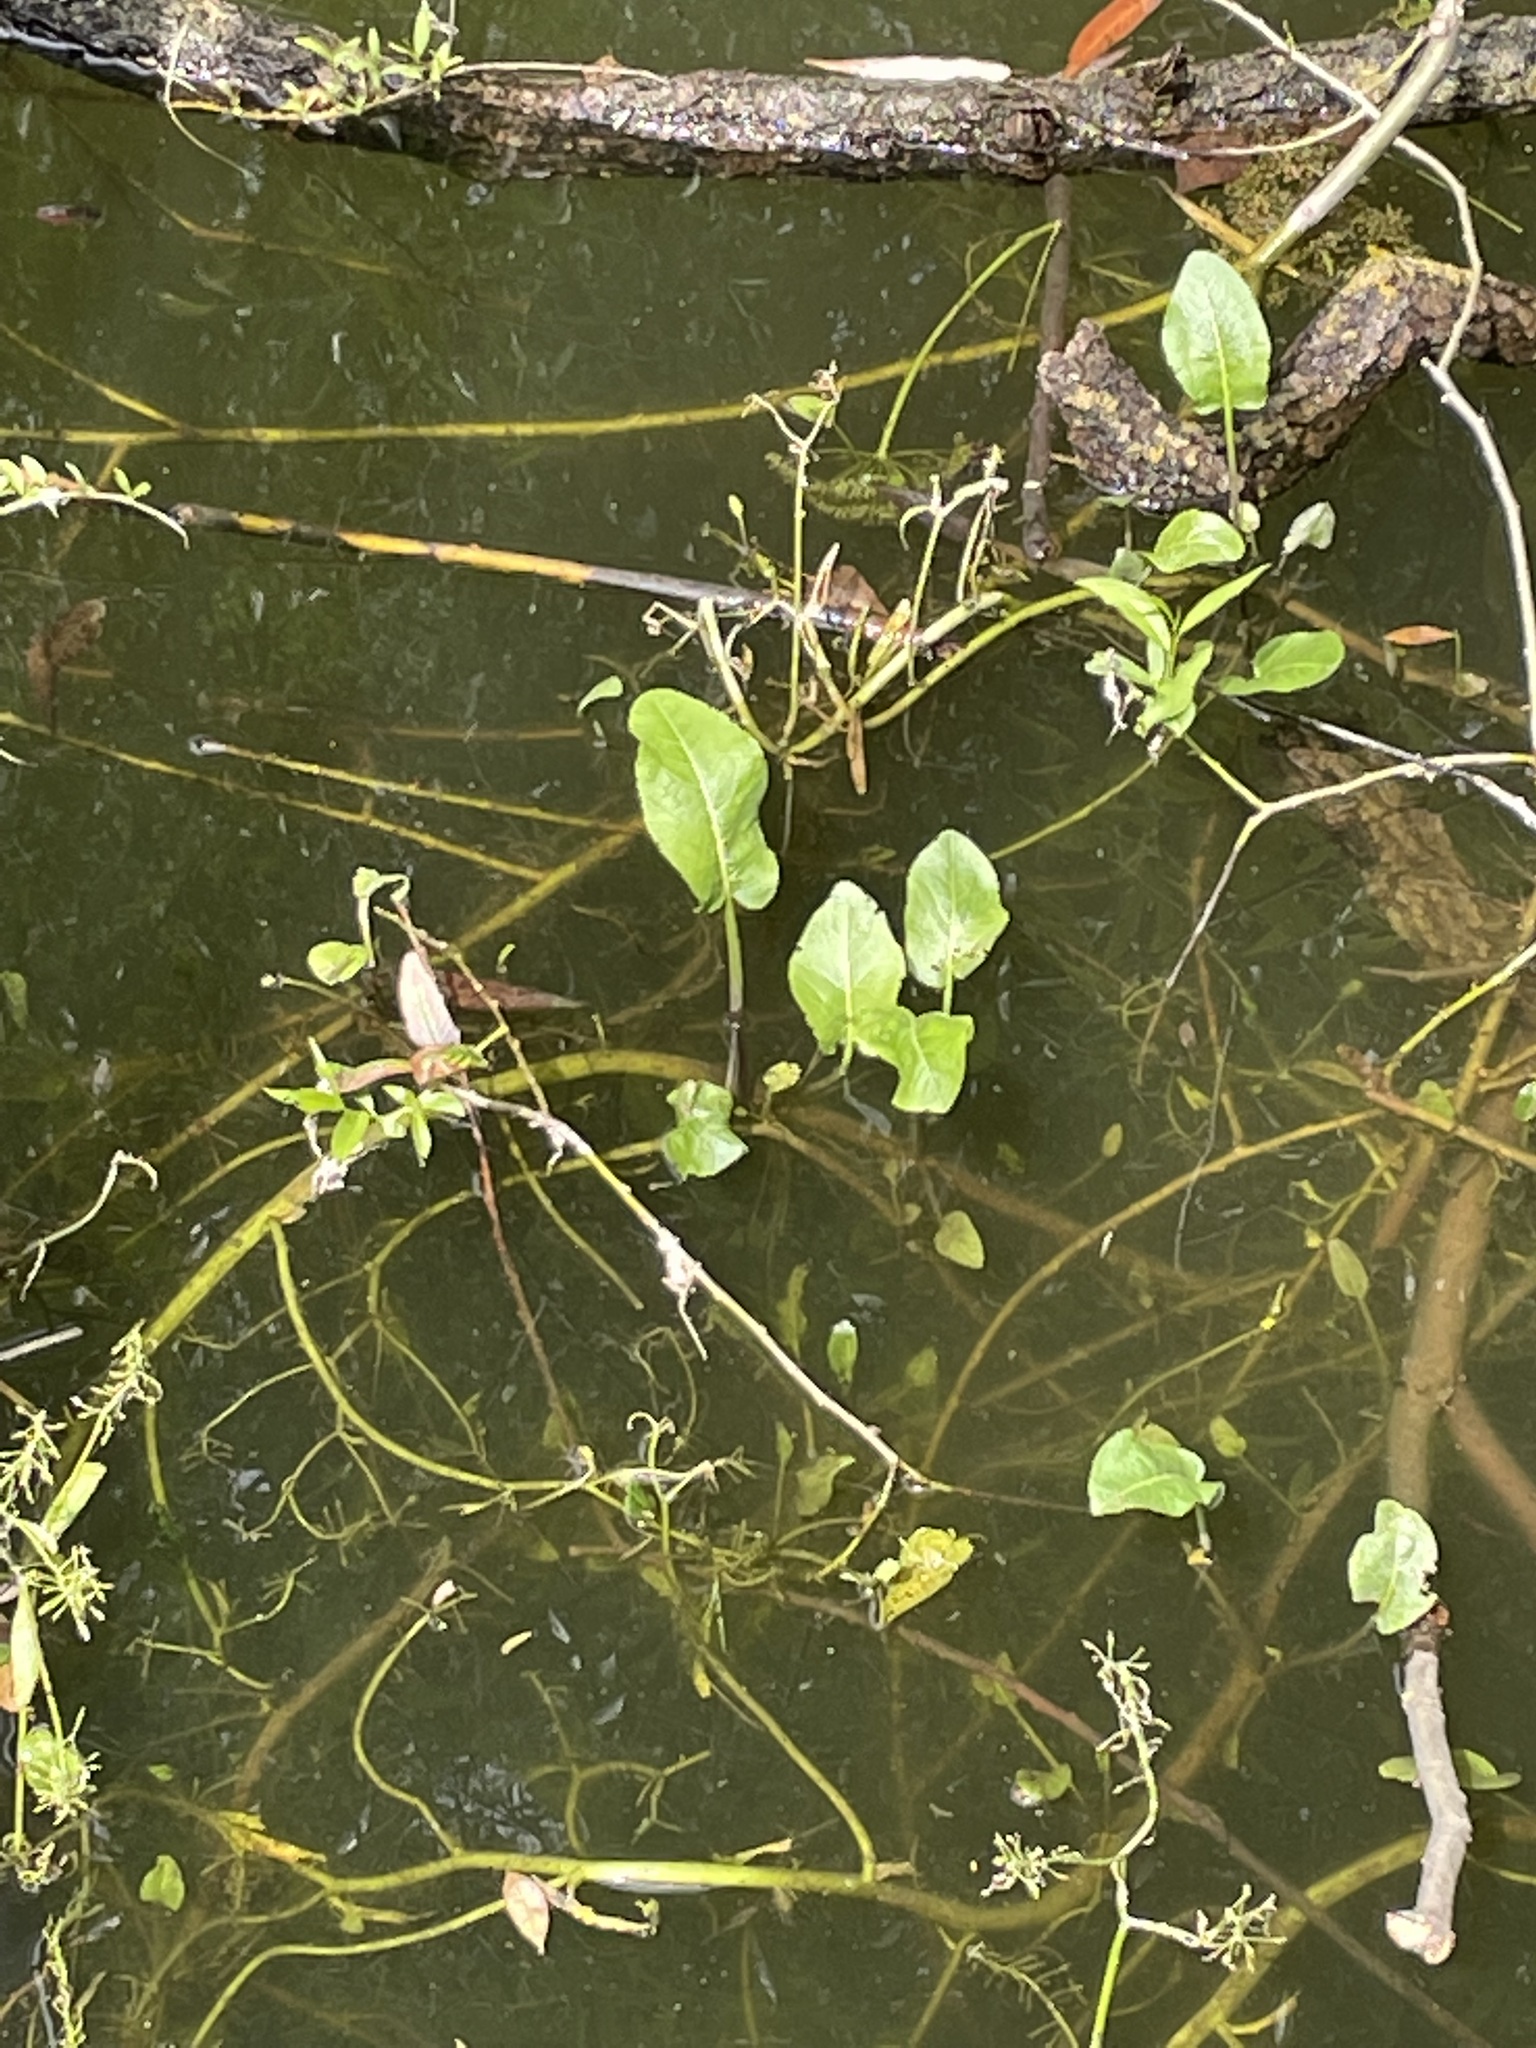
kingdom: Plantae
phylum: Tracheophyta
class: Magnoliopsida
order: Brassicales
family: Brassicaceae
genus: Rorippa
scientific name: Rorippa amphibia
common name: Great yellow-cress
